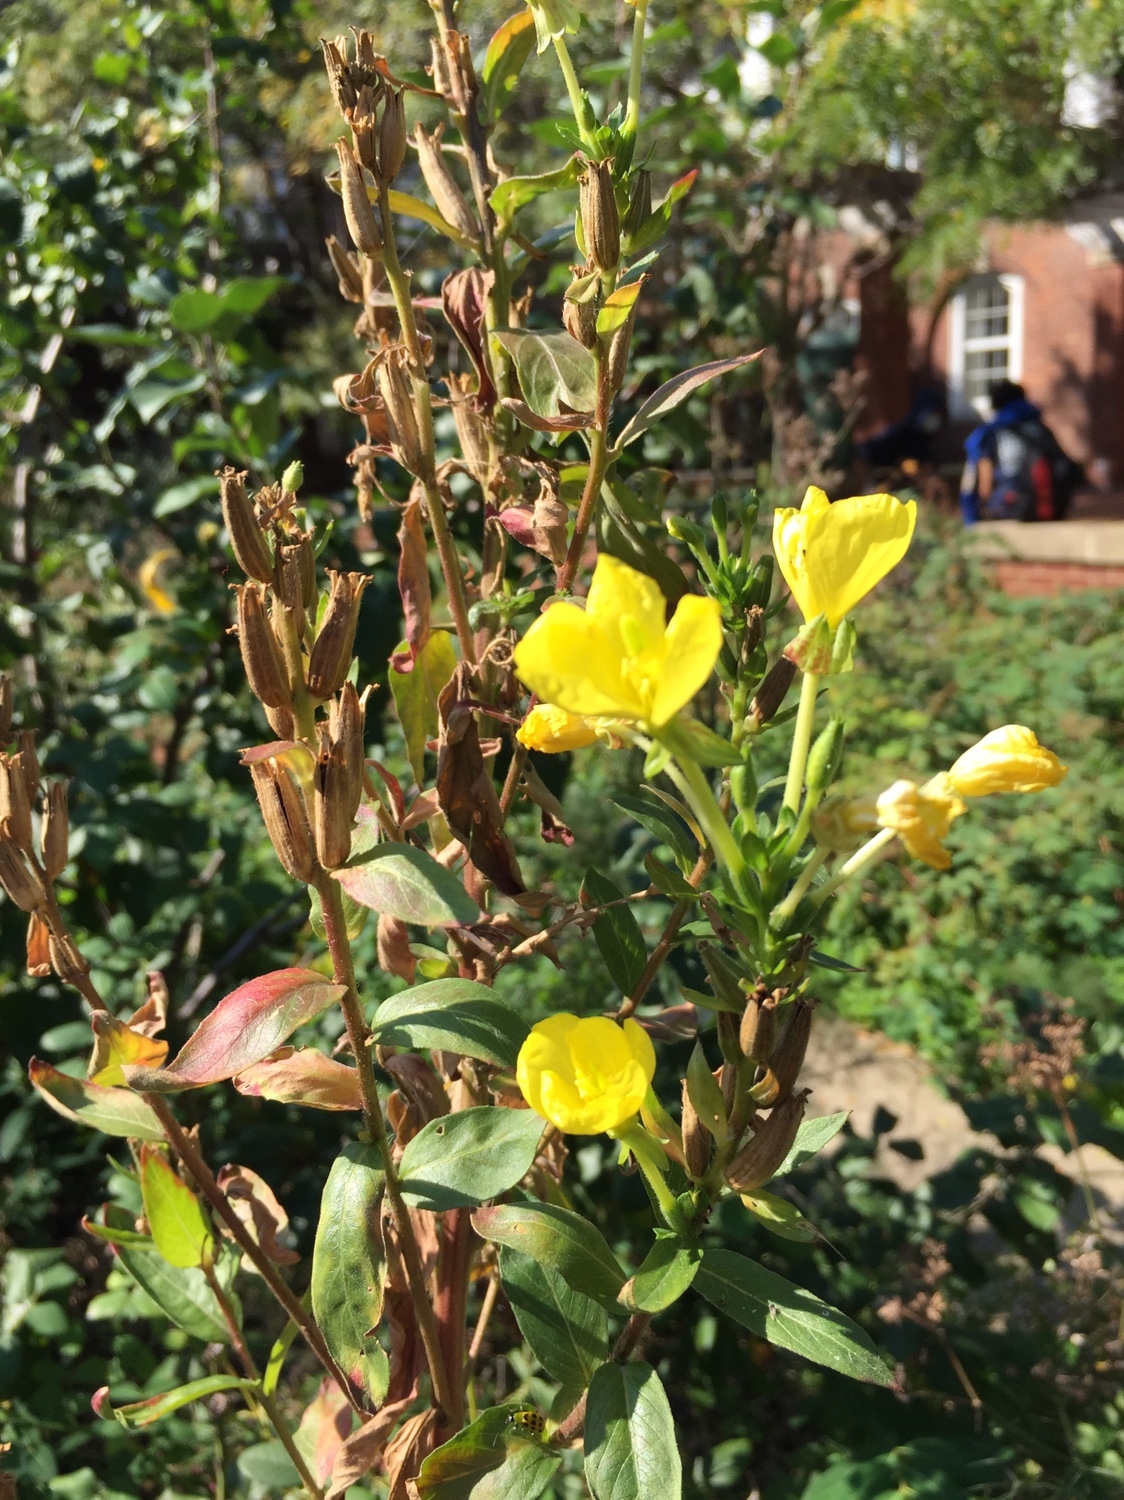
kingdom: Plantae
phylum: Tracheophyta
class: Magnoliopsida
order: Myrtales
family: Onagraceae
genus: Oenothera
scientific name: Oenothera biennis
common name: Common evening-primrose
